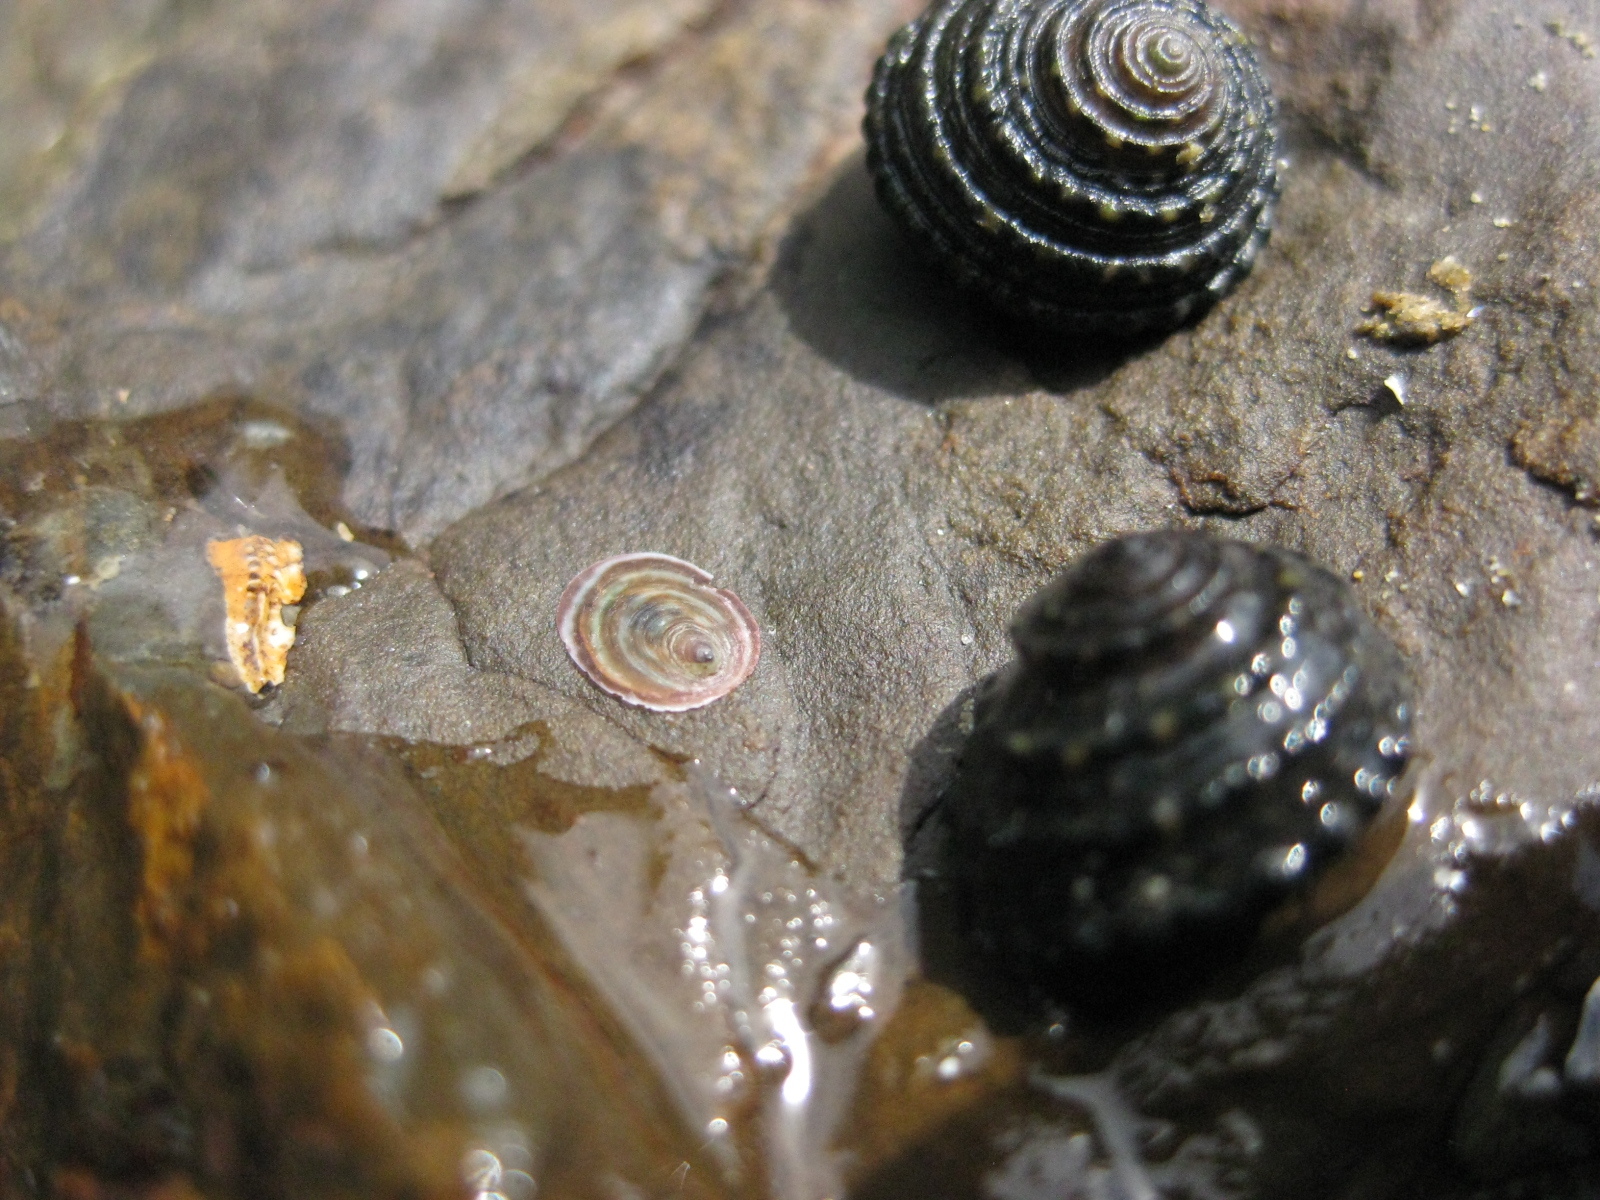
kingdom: Animalia
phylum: Mollusca
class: Gastropoda
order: Trochida
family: Trochidae
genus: Diloma
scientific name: Diloma bicanaliculatum
